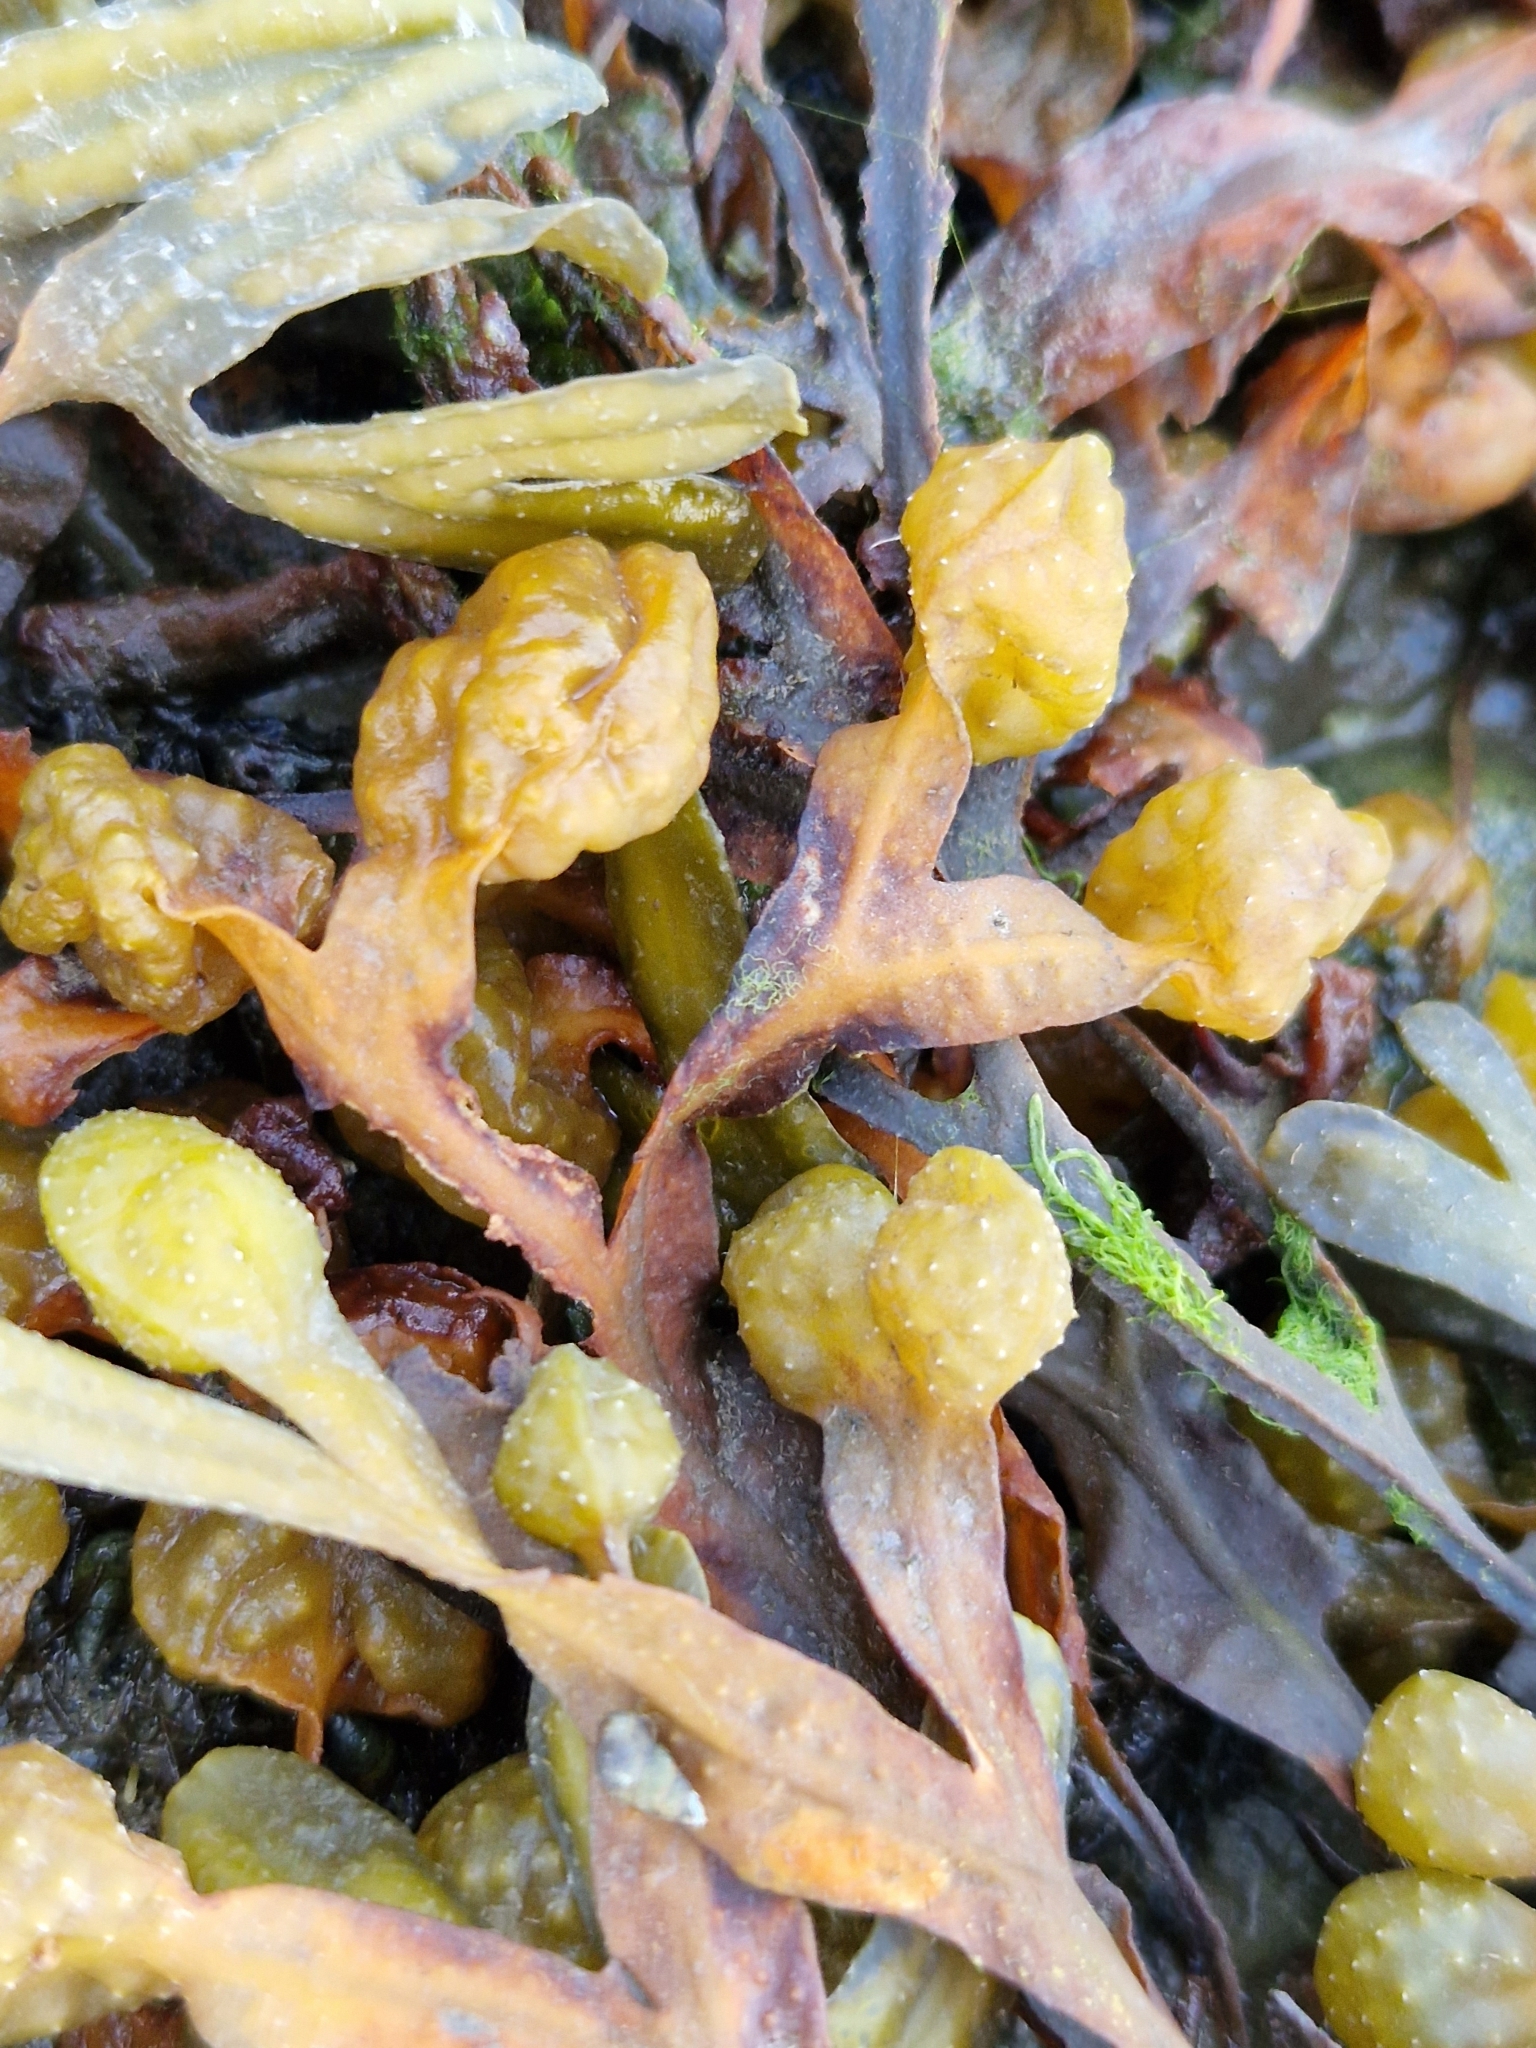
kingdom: Chromista
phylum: Ochrophyta
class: Phaeophyceae
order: Fucales
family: Fucaceae
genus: Fucus
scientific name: Fucus spiralis
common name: Spiral wrack
